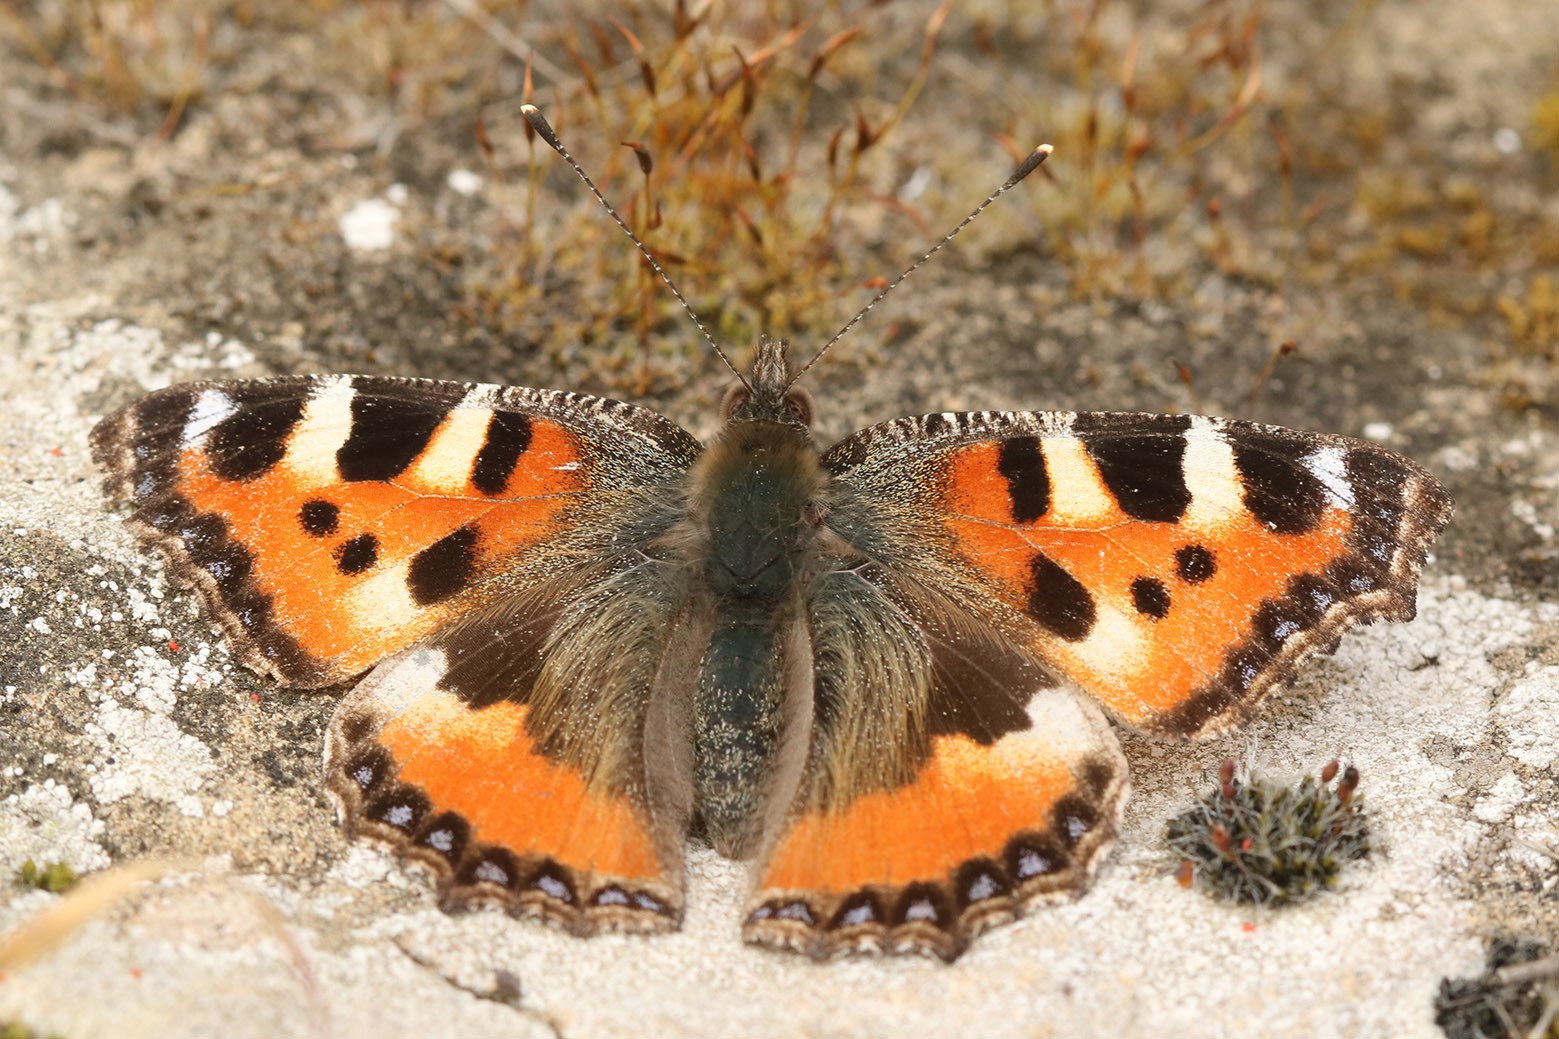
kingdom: Animalia
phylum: Arthropoda
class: Insecta
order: Lepidoptera
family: Nymphalidae
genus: Aglais
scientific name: Aglais urticae
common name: Small tortoiseshell
